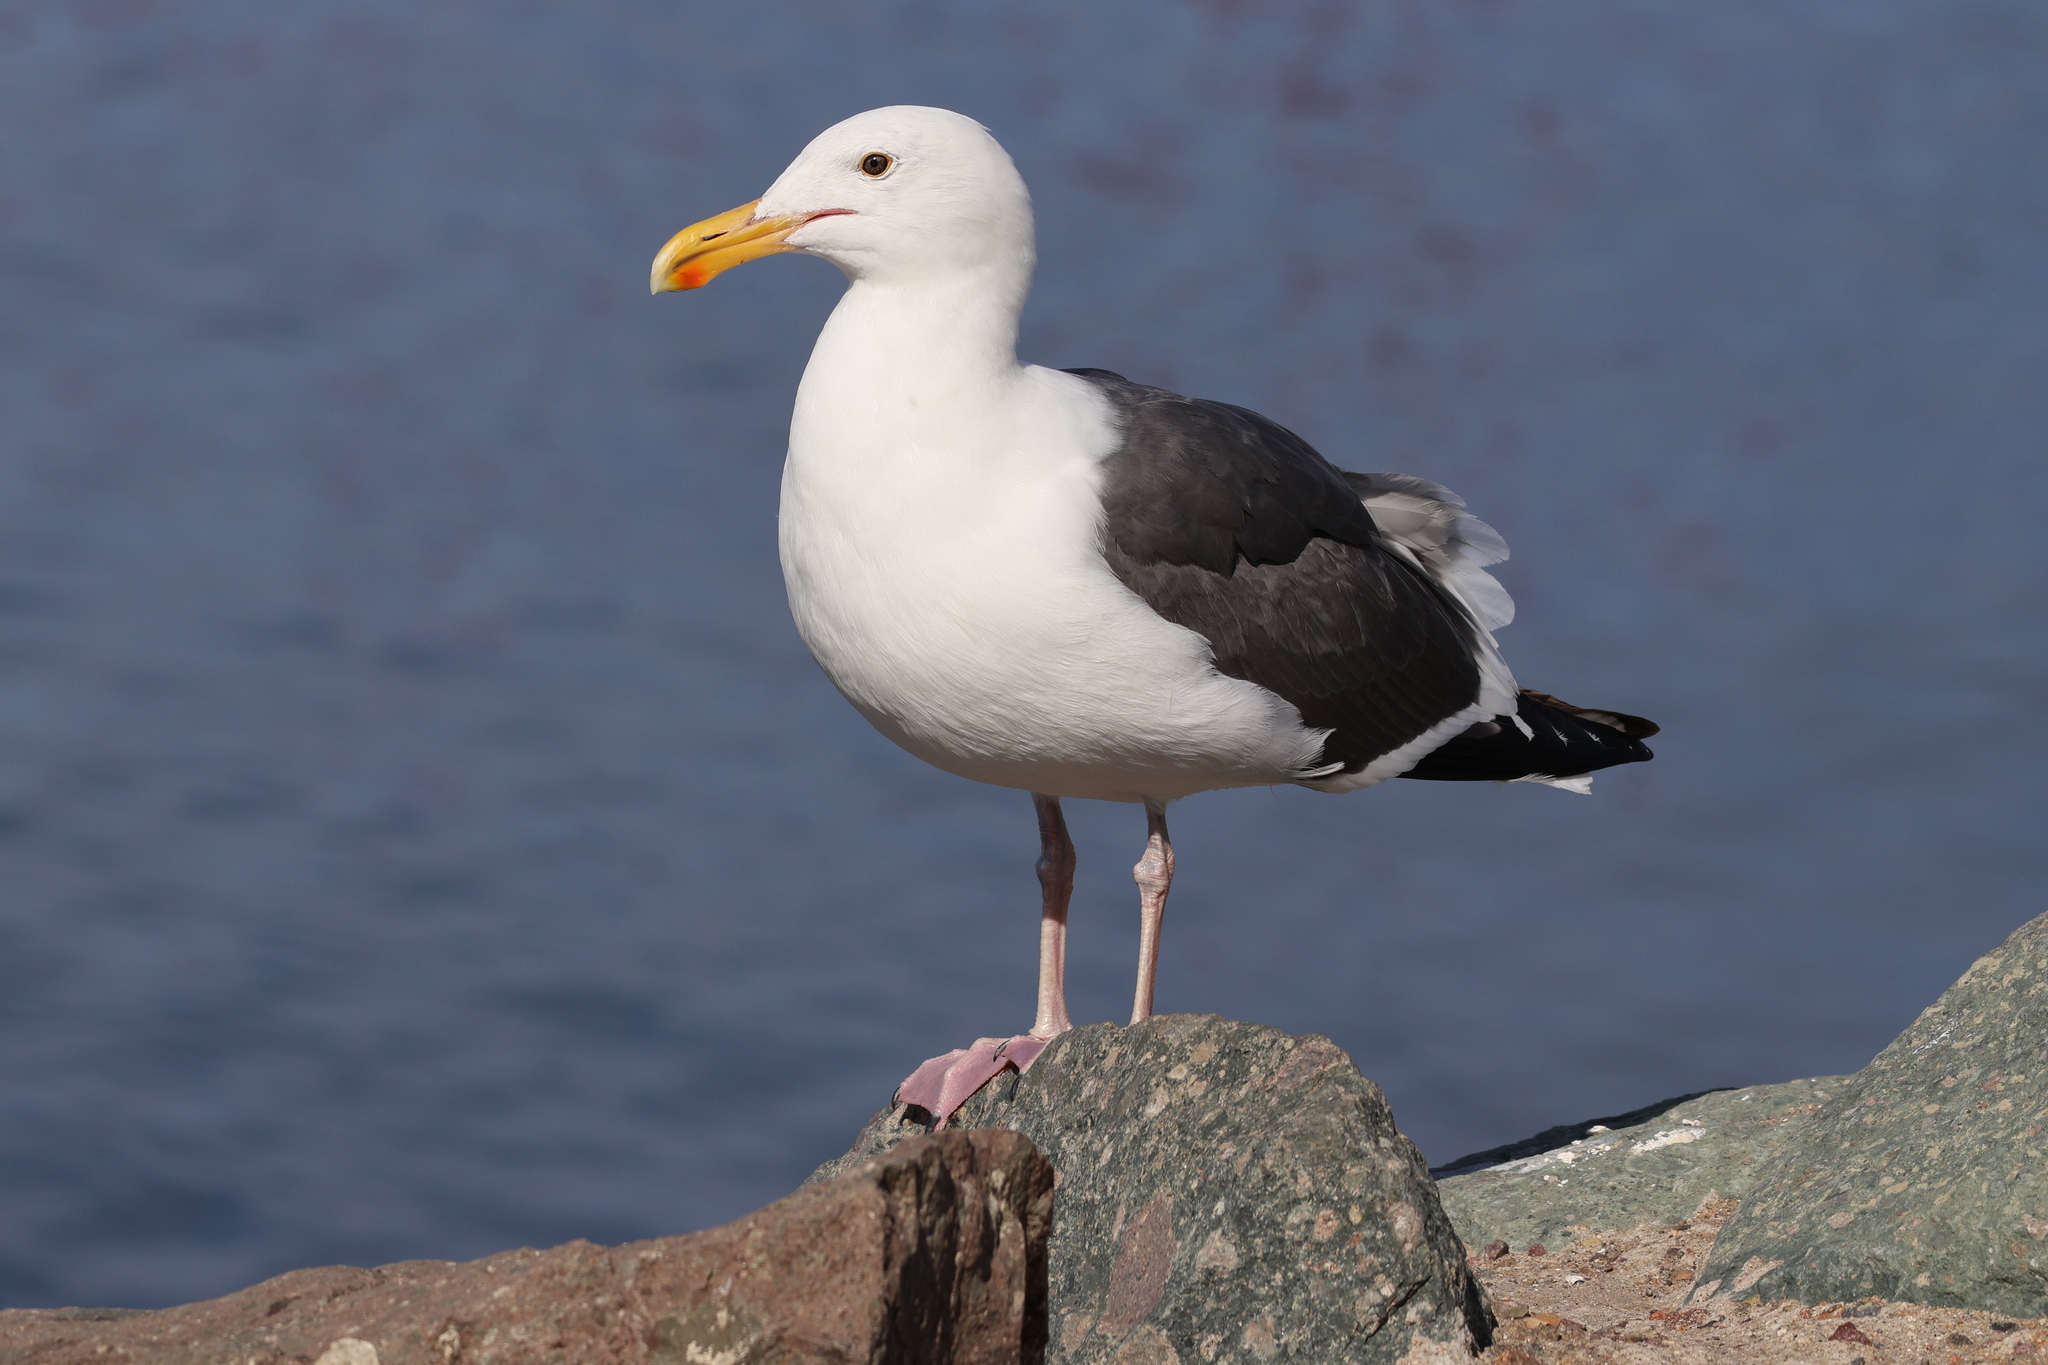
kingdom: Animalia
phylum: Chordata
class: Aves
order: Charadriiformes
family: Laridae
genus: Larus
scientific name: Larus occidentalis
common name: Western gull
